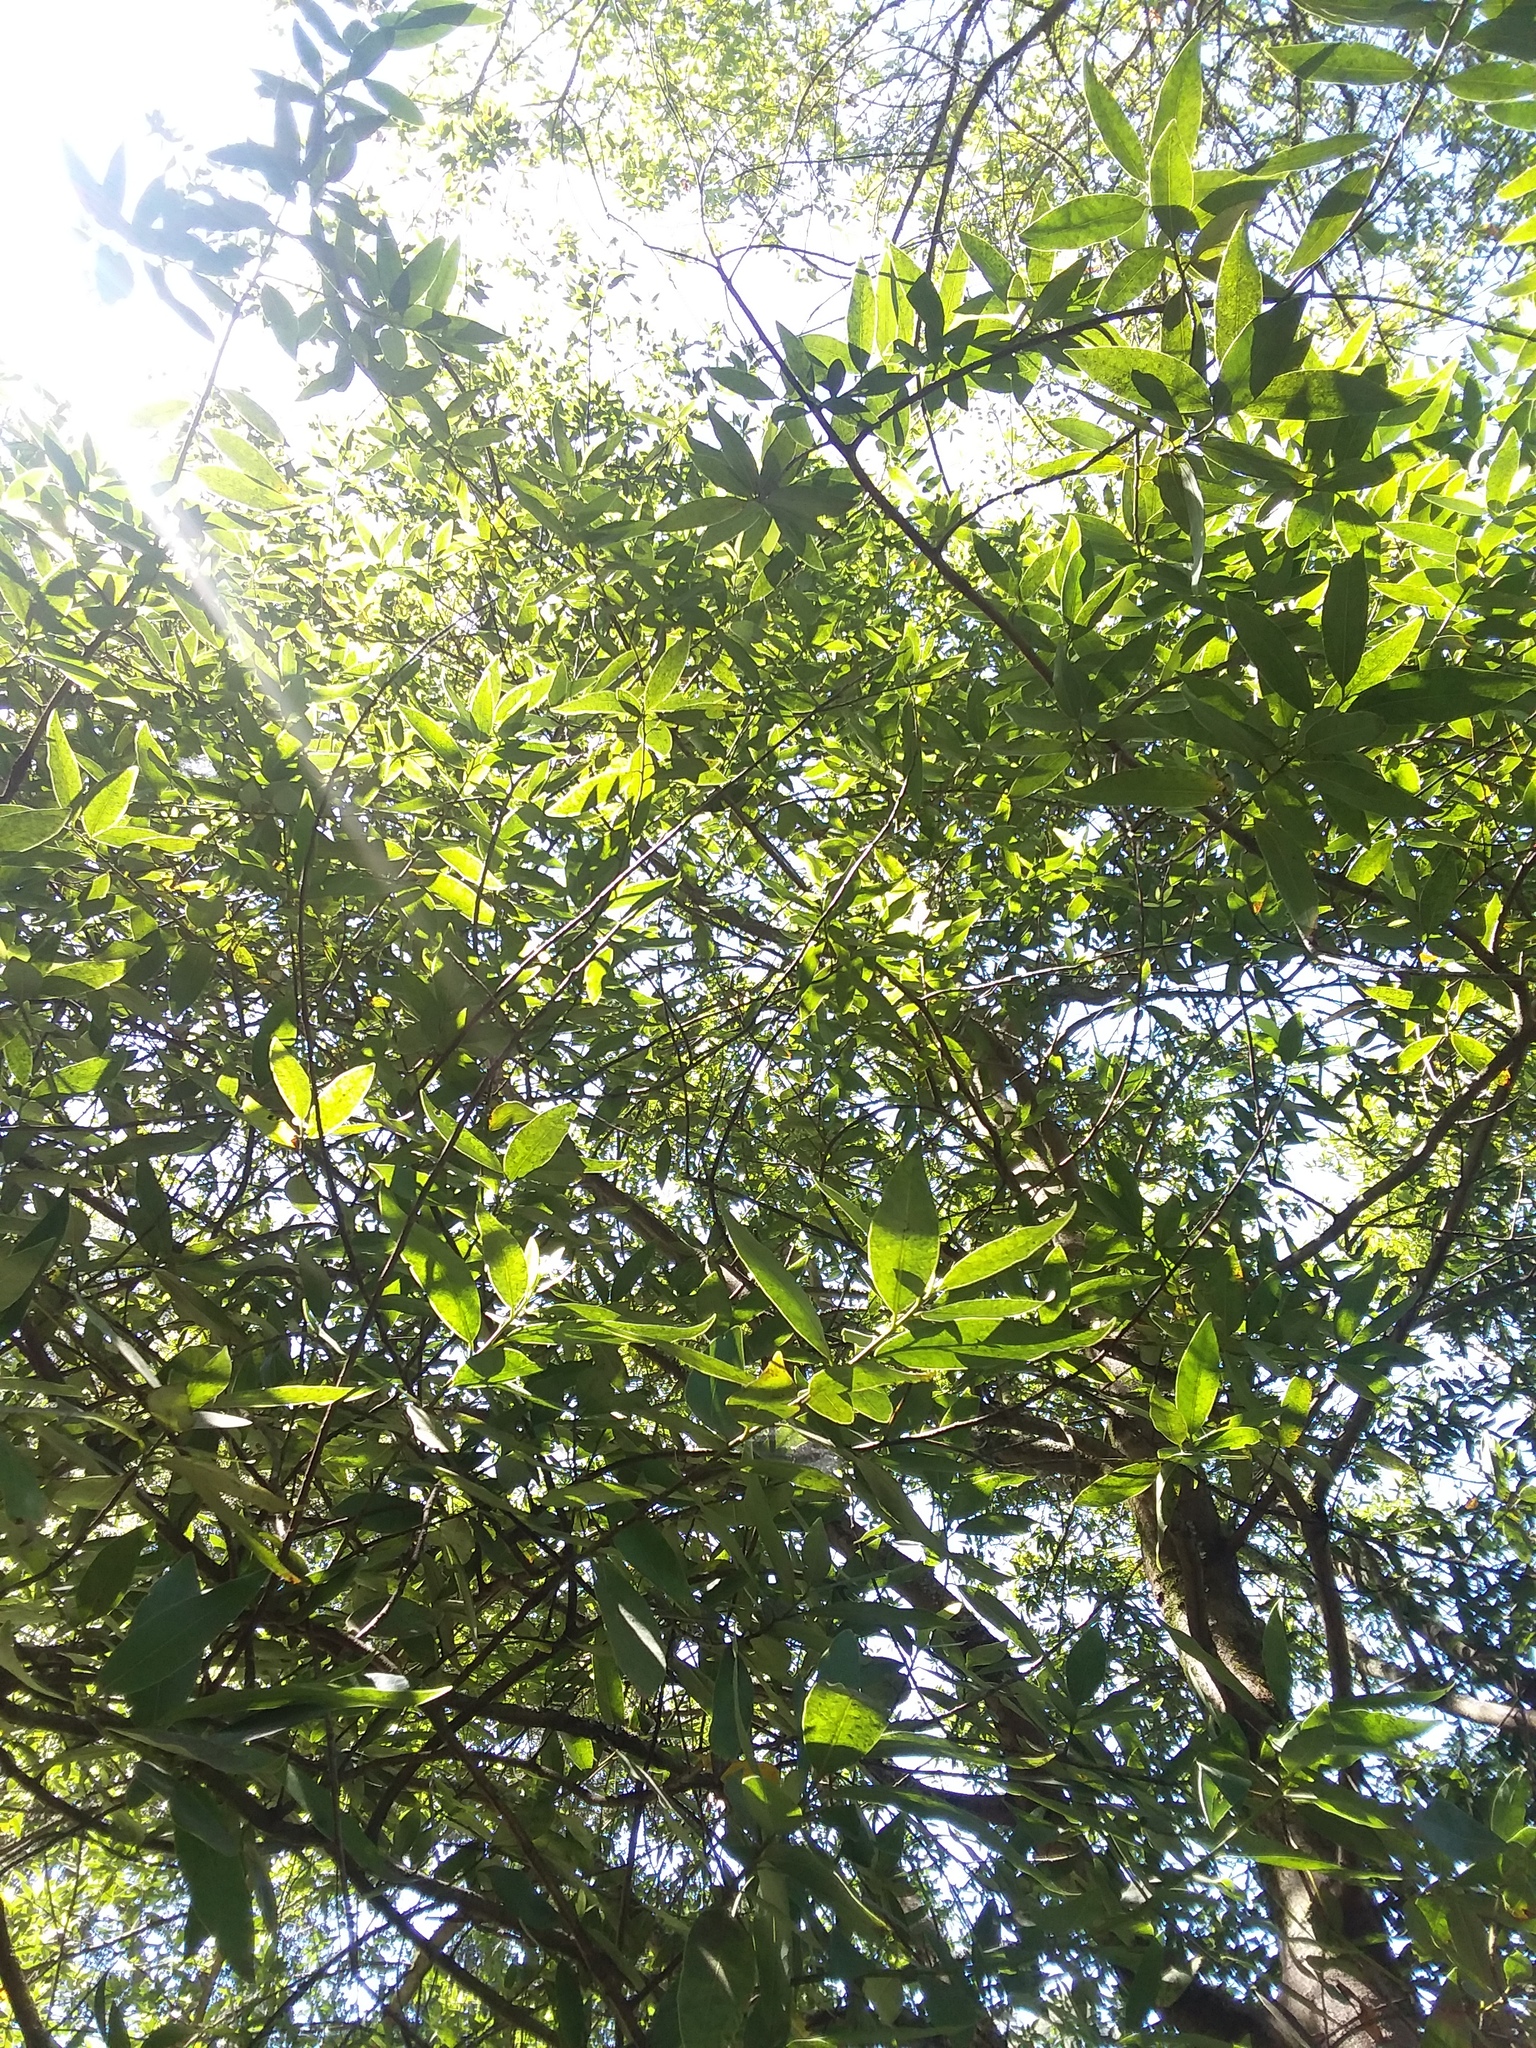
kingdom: Plantae
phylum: Tracheophyta
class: Magnoliopsida
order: Laurales
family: Lauraceae
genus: Umbellularia
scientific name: Umbellularia californica
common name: California bay
